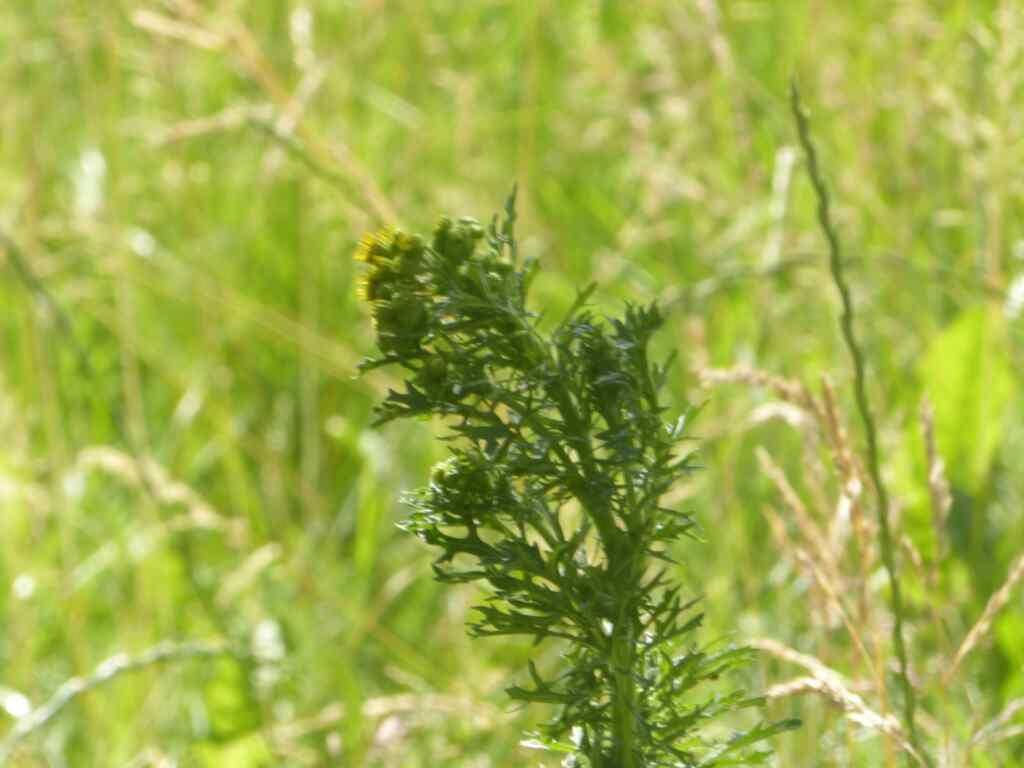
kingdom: Plantae
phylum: Tracheophyta
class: Magnoliopsida
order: Asterales
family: Asteraceae
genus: Jacobaea
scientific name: Jacobaea vulgaris
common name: Stinking willie
